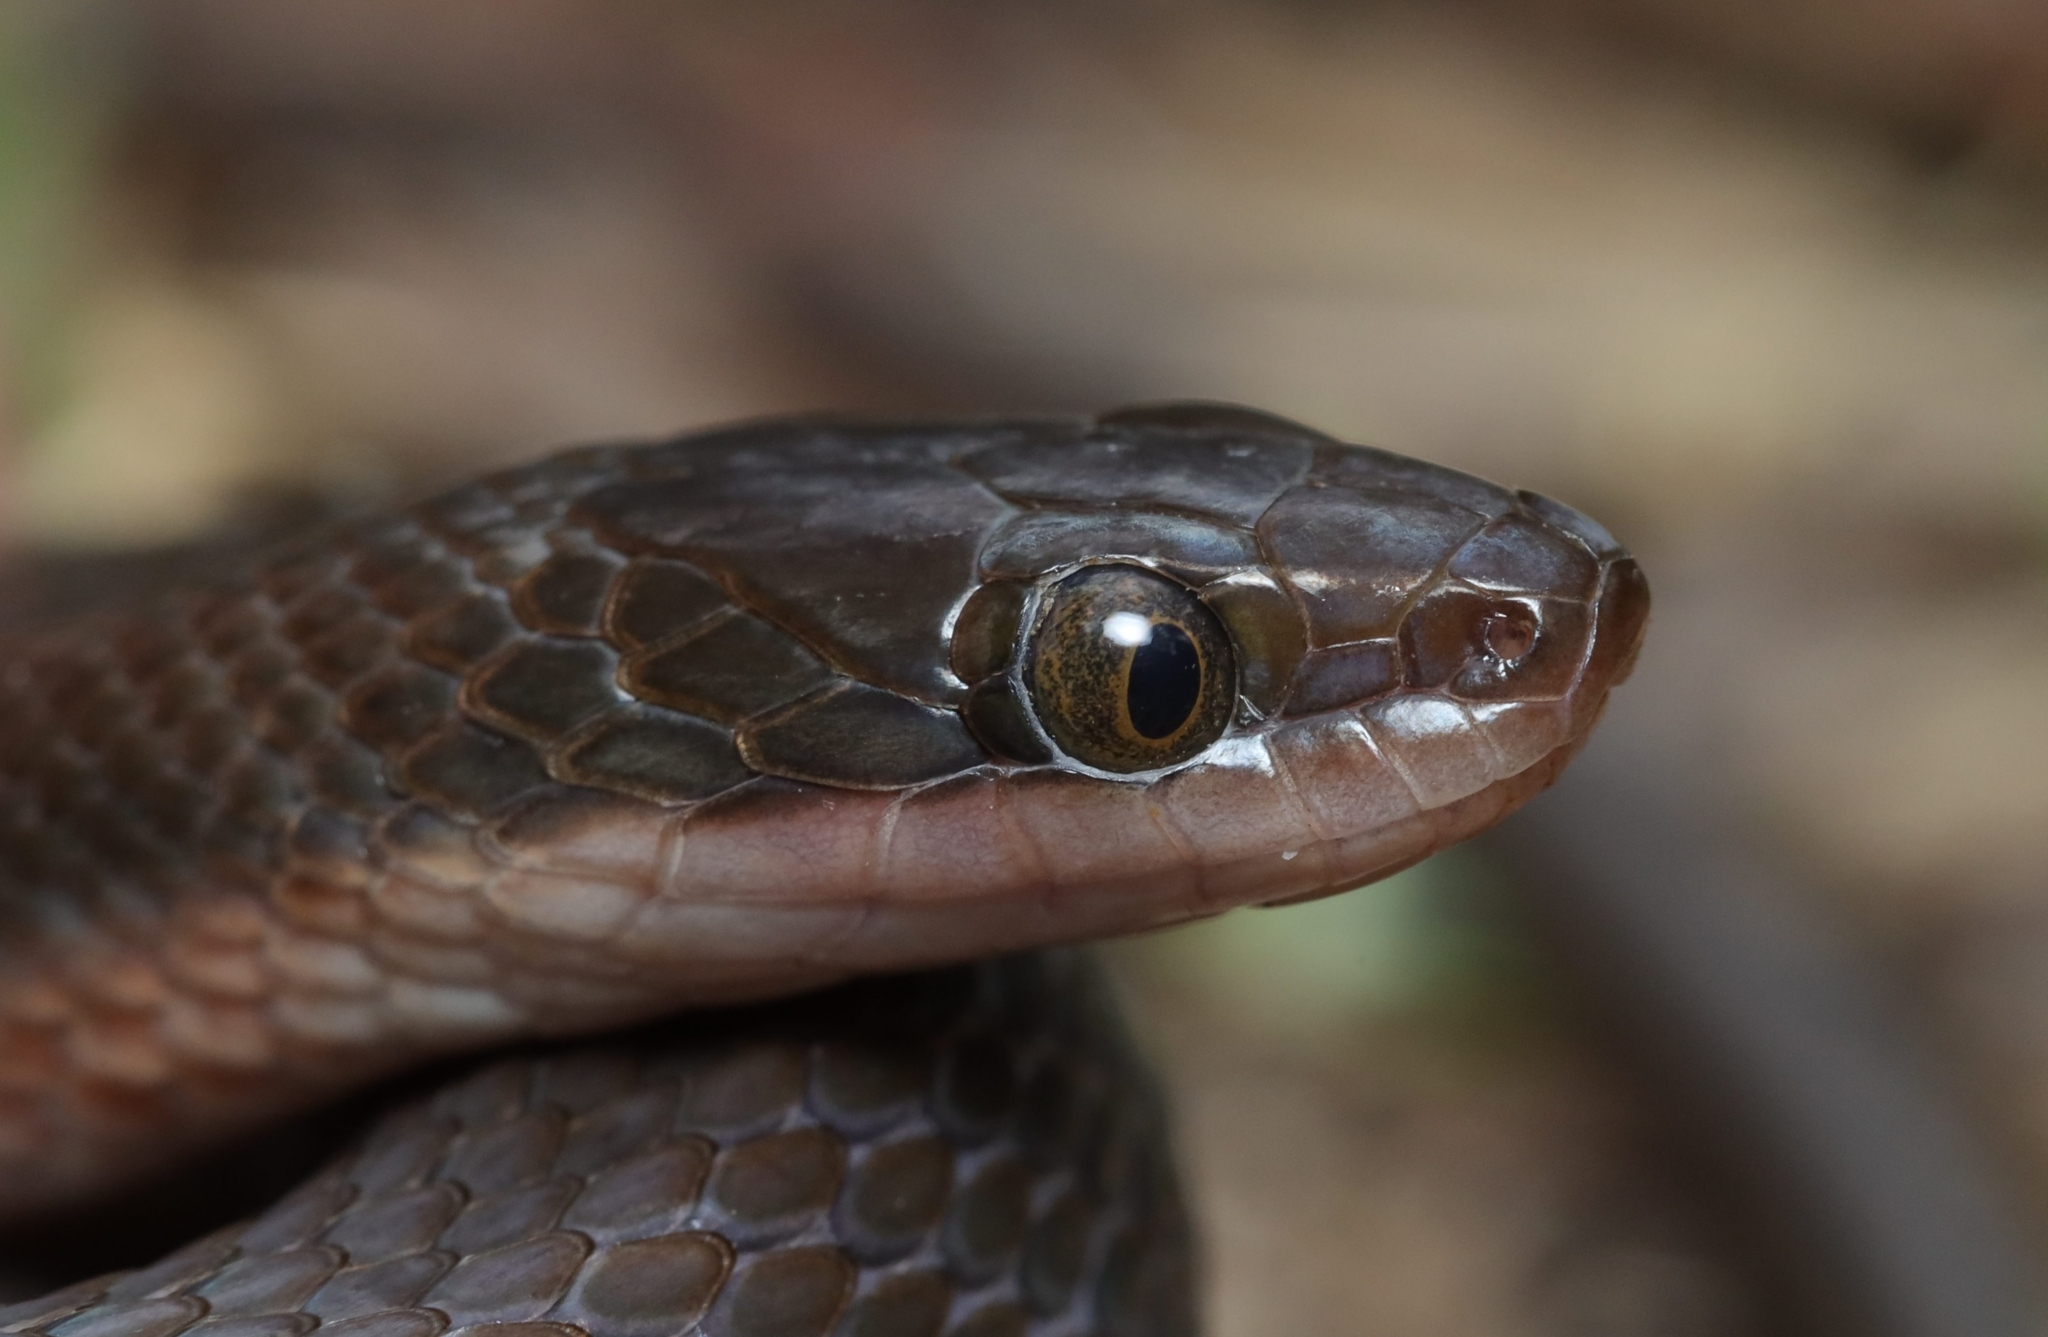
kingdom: Animalia
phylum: Chordata
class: Squamata
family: Lamprophiidae
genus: Lycodonomorphus
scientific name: Lycodonomorphus rufulus
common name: Brown water snake
